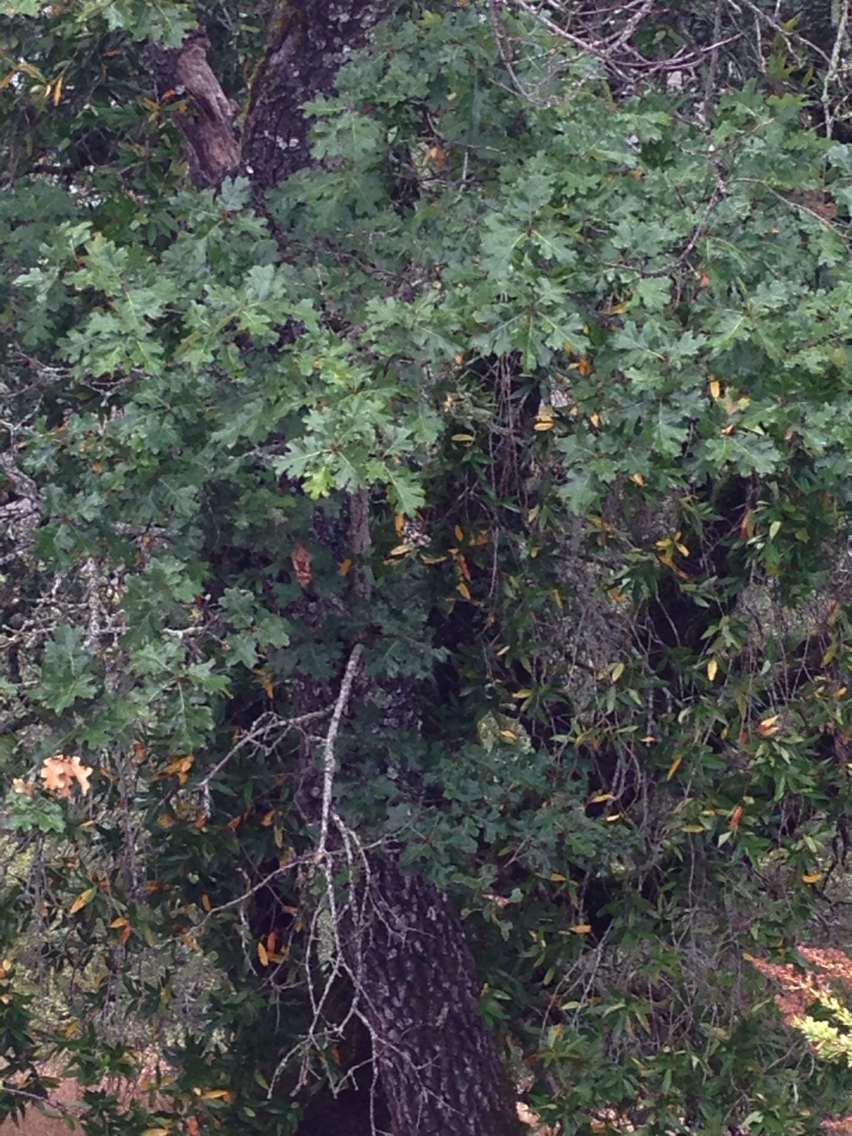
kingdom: Plantae
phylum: Tracheophyta
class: Magnoliopsida
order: Fagales
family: Fagaceae
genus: Quercus
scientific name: Quercus kelloggii
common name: California black oak
